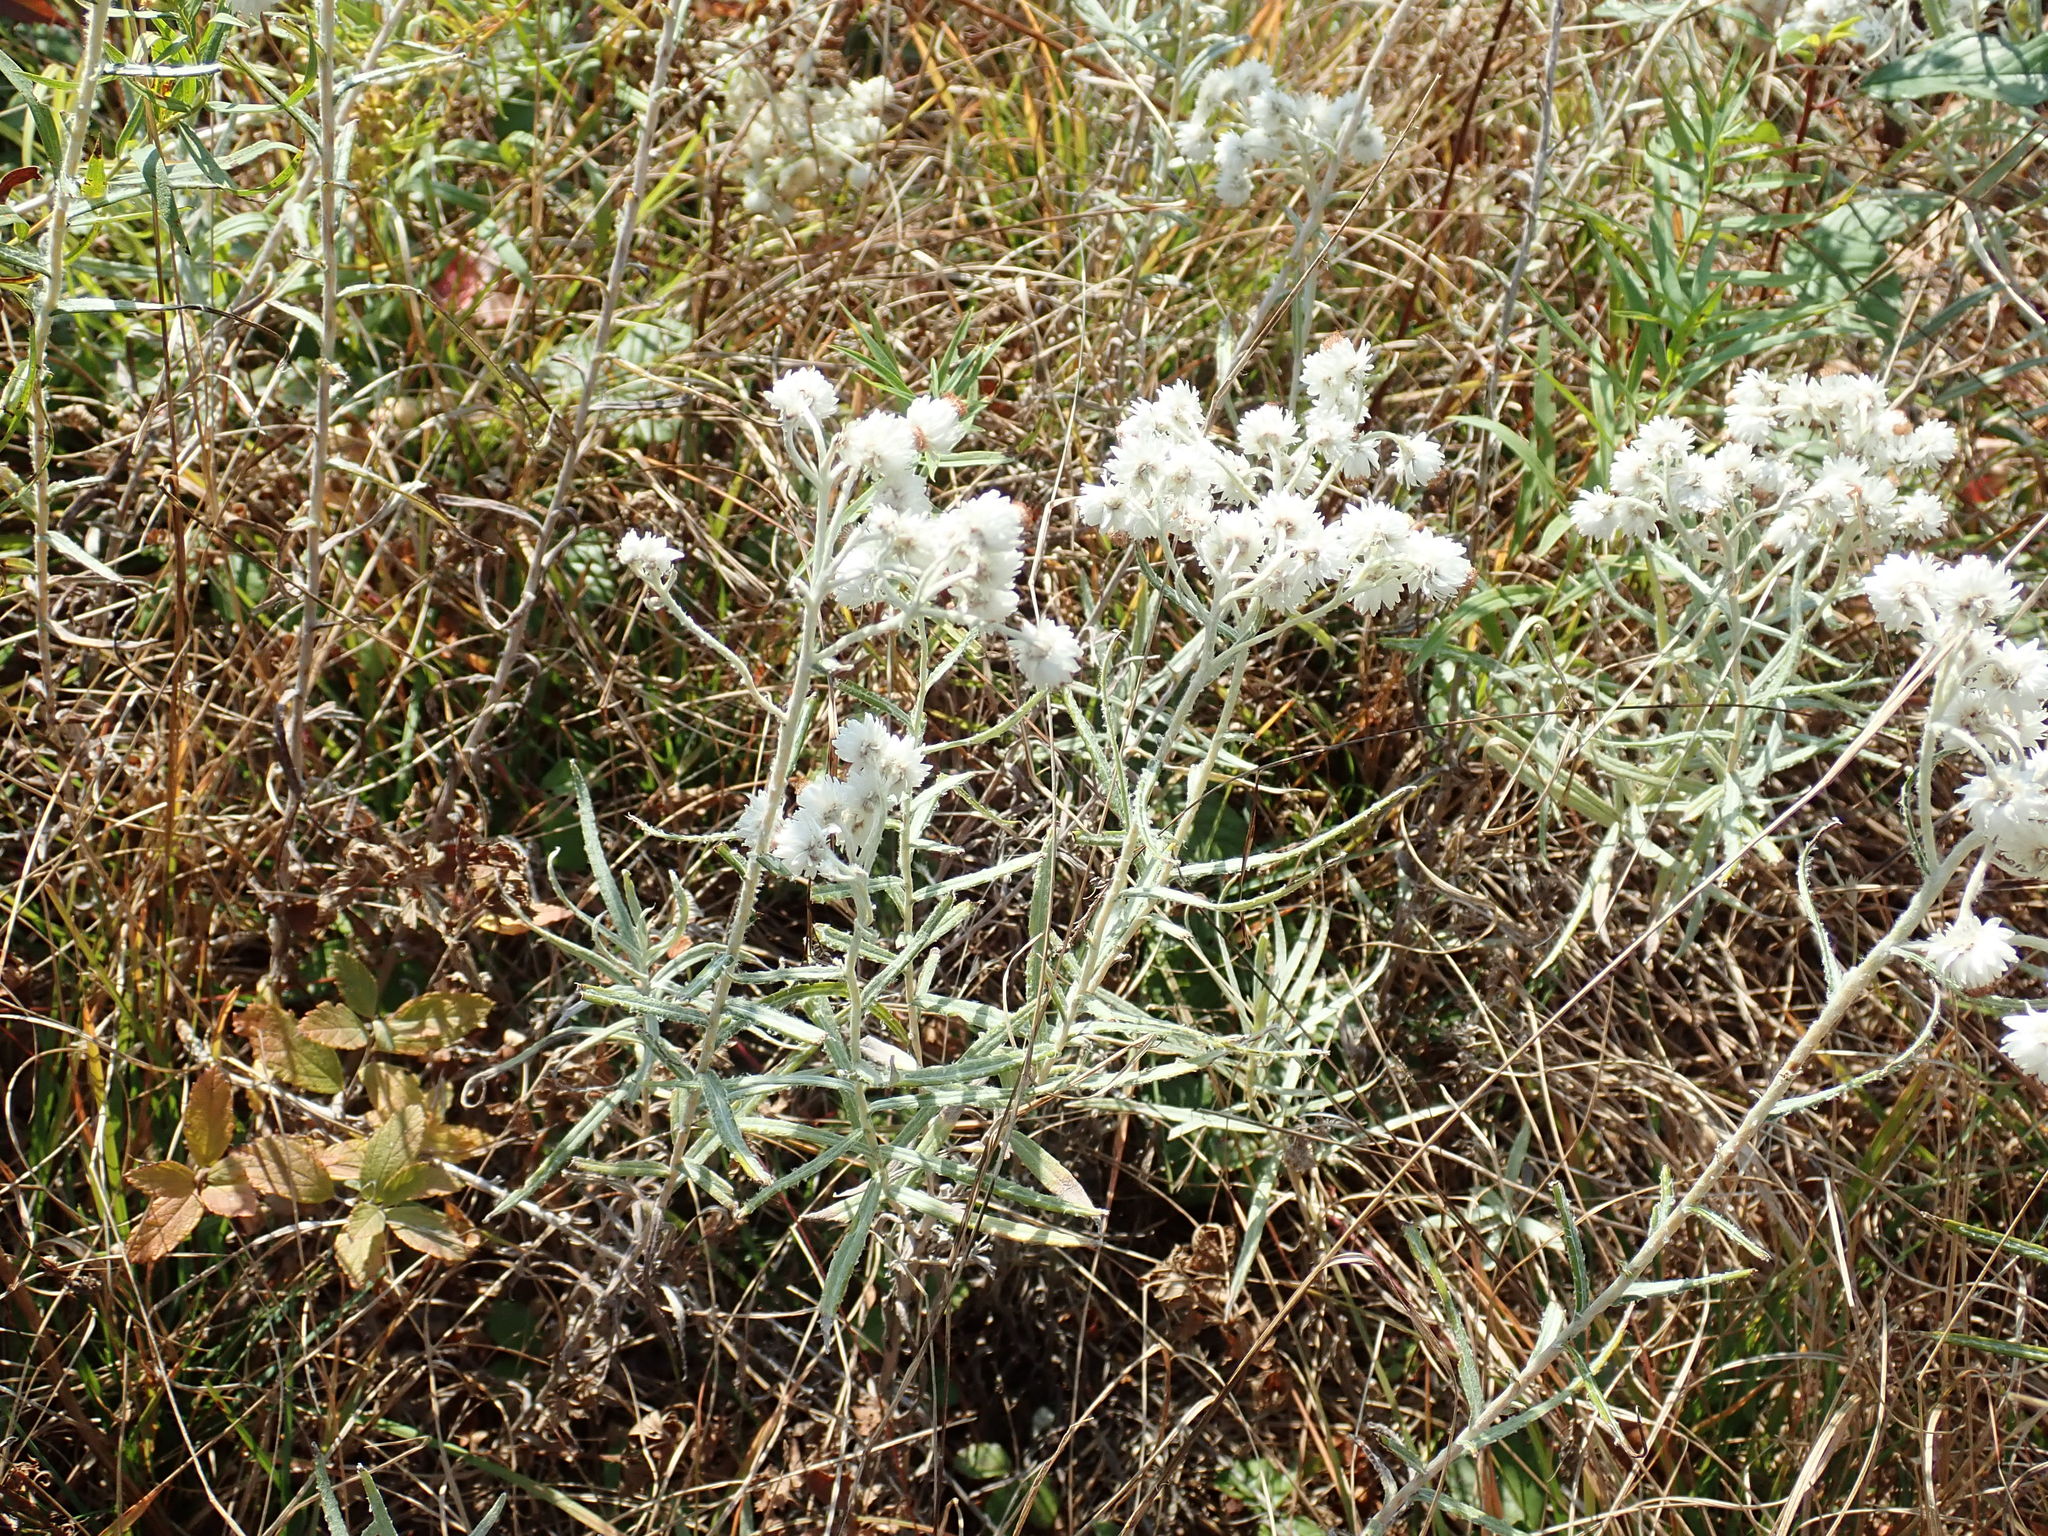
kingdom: Plantae
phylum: Tracheophyta
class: Magnoliopsida
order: Asterales
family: Asteraceae
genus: Anaphalis
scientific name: Anaphalis margaritacea
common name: Pearly everlasting
